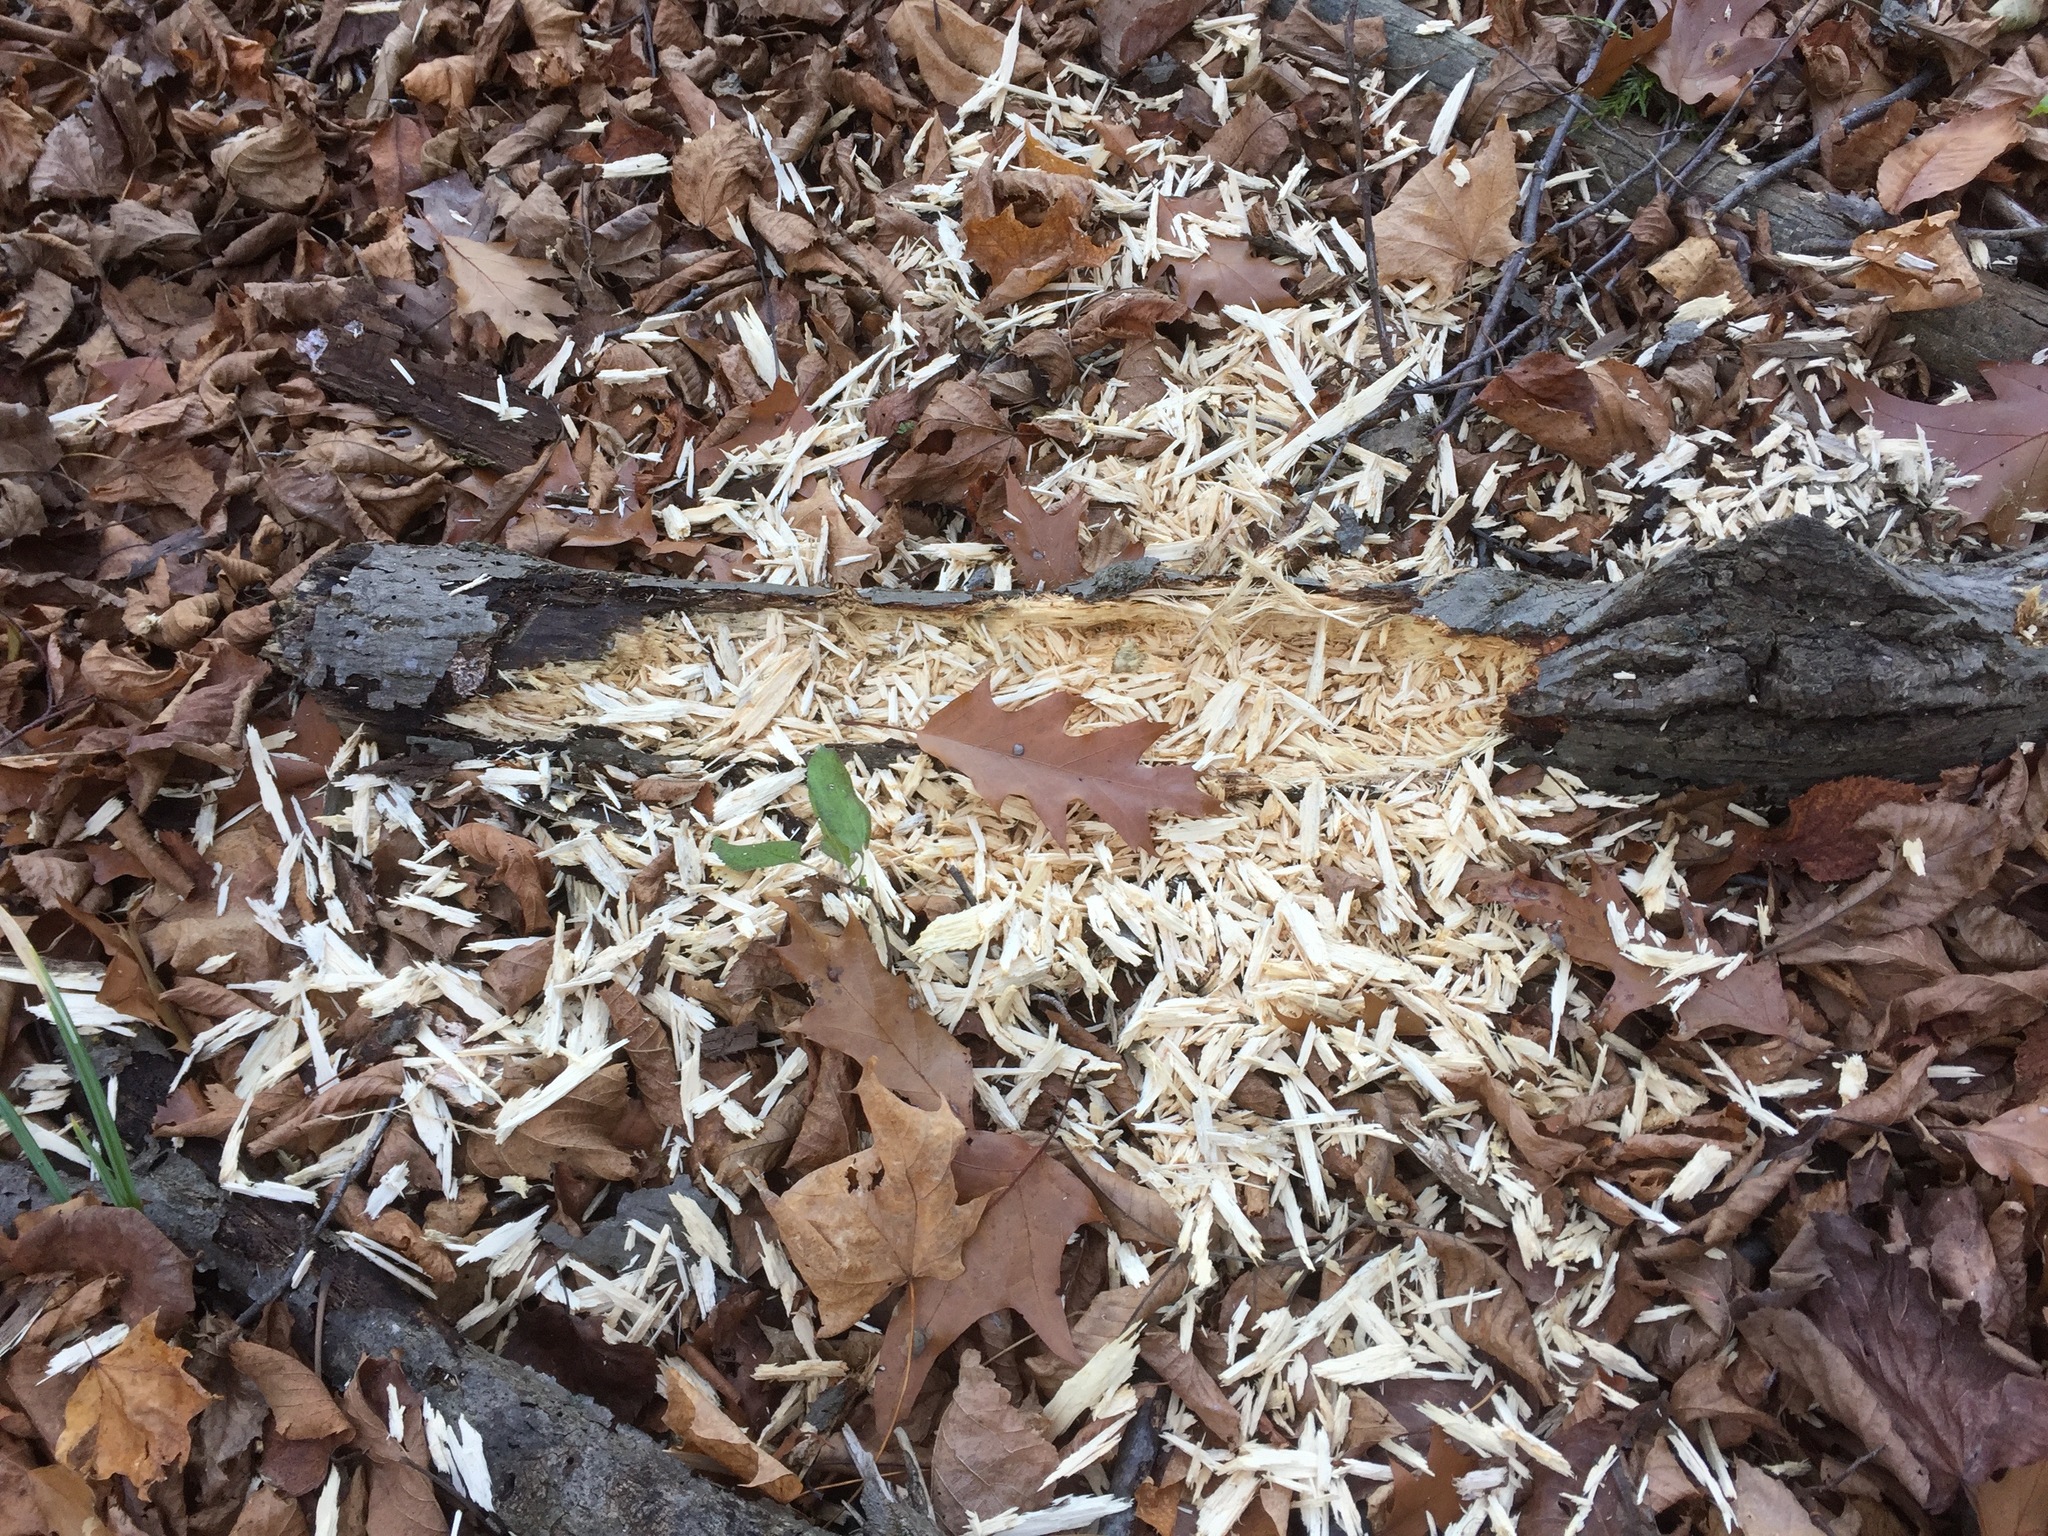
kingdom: Animalia
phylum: Chordata
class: Aves
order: Piciformes
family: Picidae
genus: Dryocopus
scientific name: Dryocopus pileatus
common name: Pileated woodpecker
